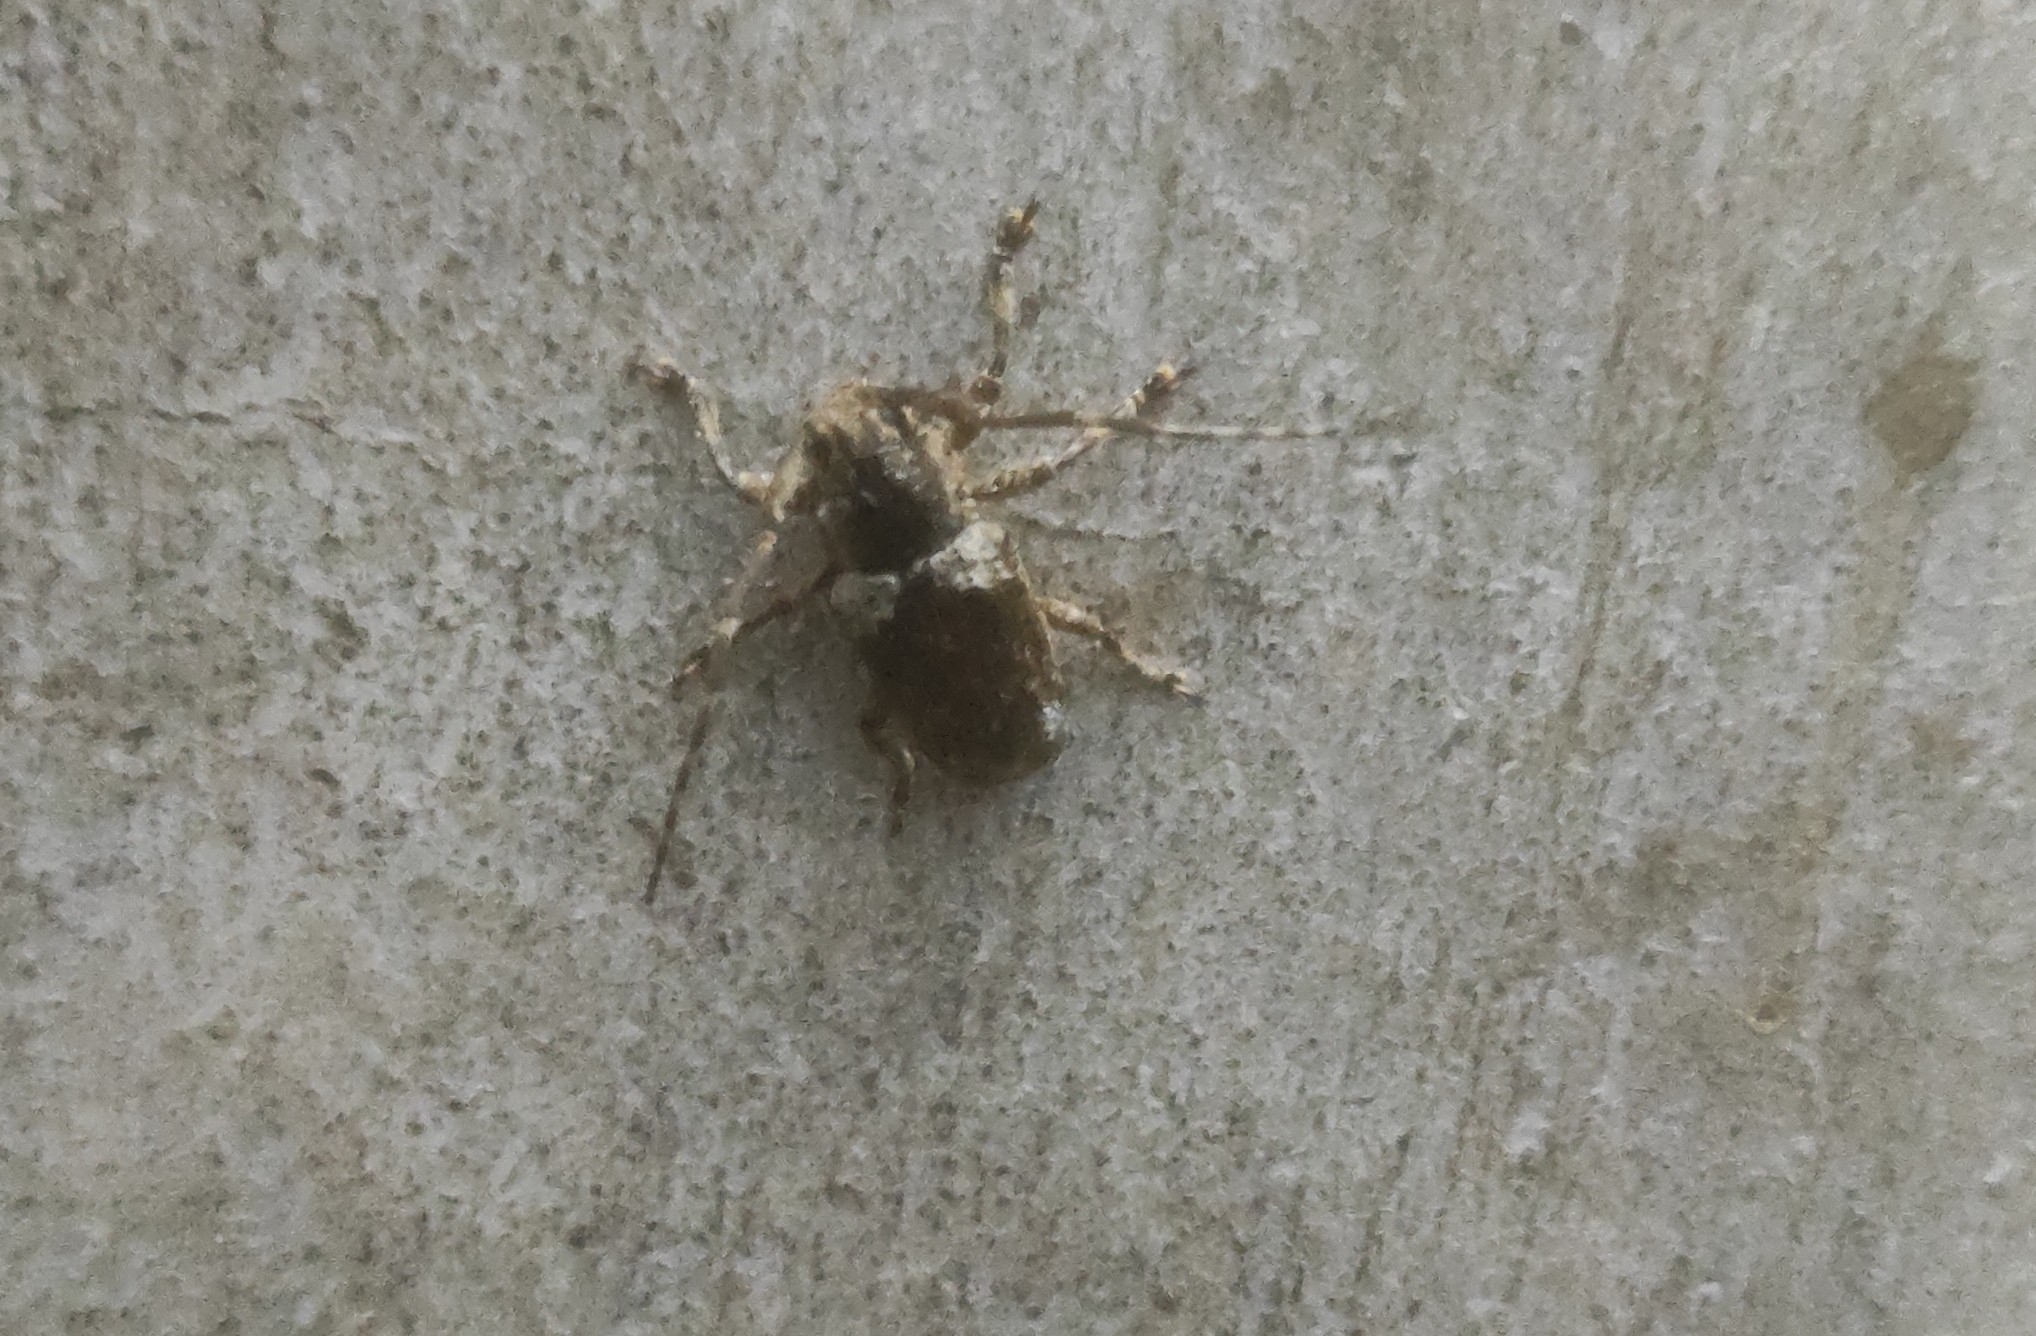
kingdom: Animalia
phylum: Arthropoda
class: Insecta
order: Coleoptera
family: Cerambycidae
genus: Coptops
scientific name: Coptops aedificator
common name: Long-horned beetle
